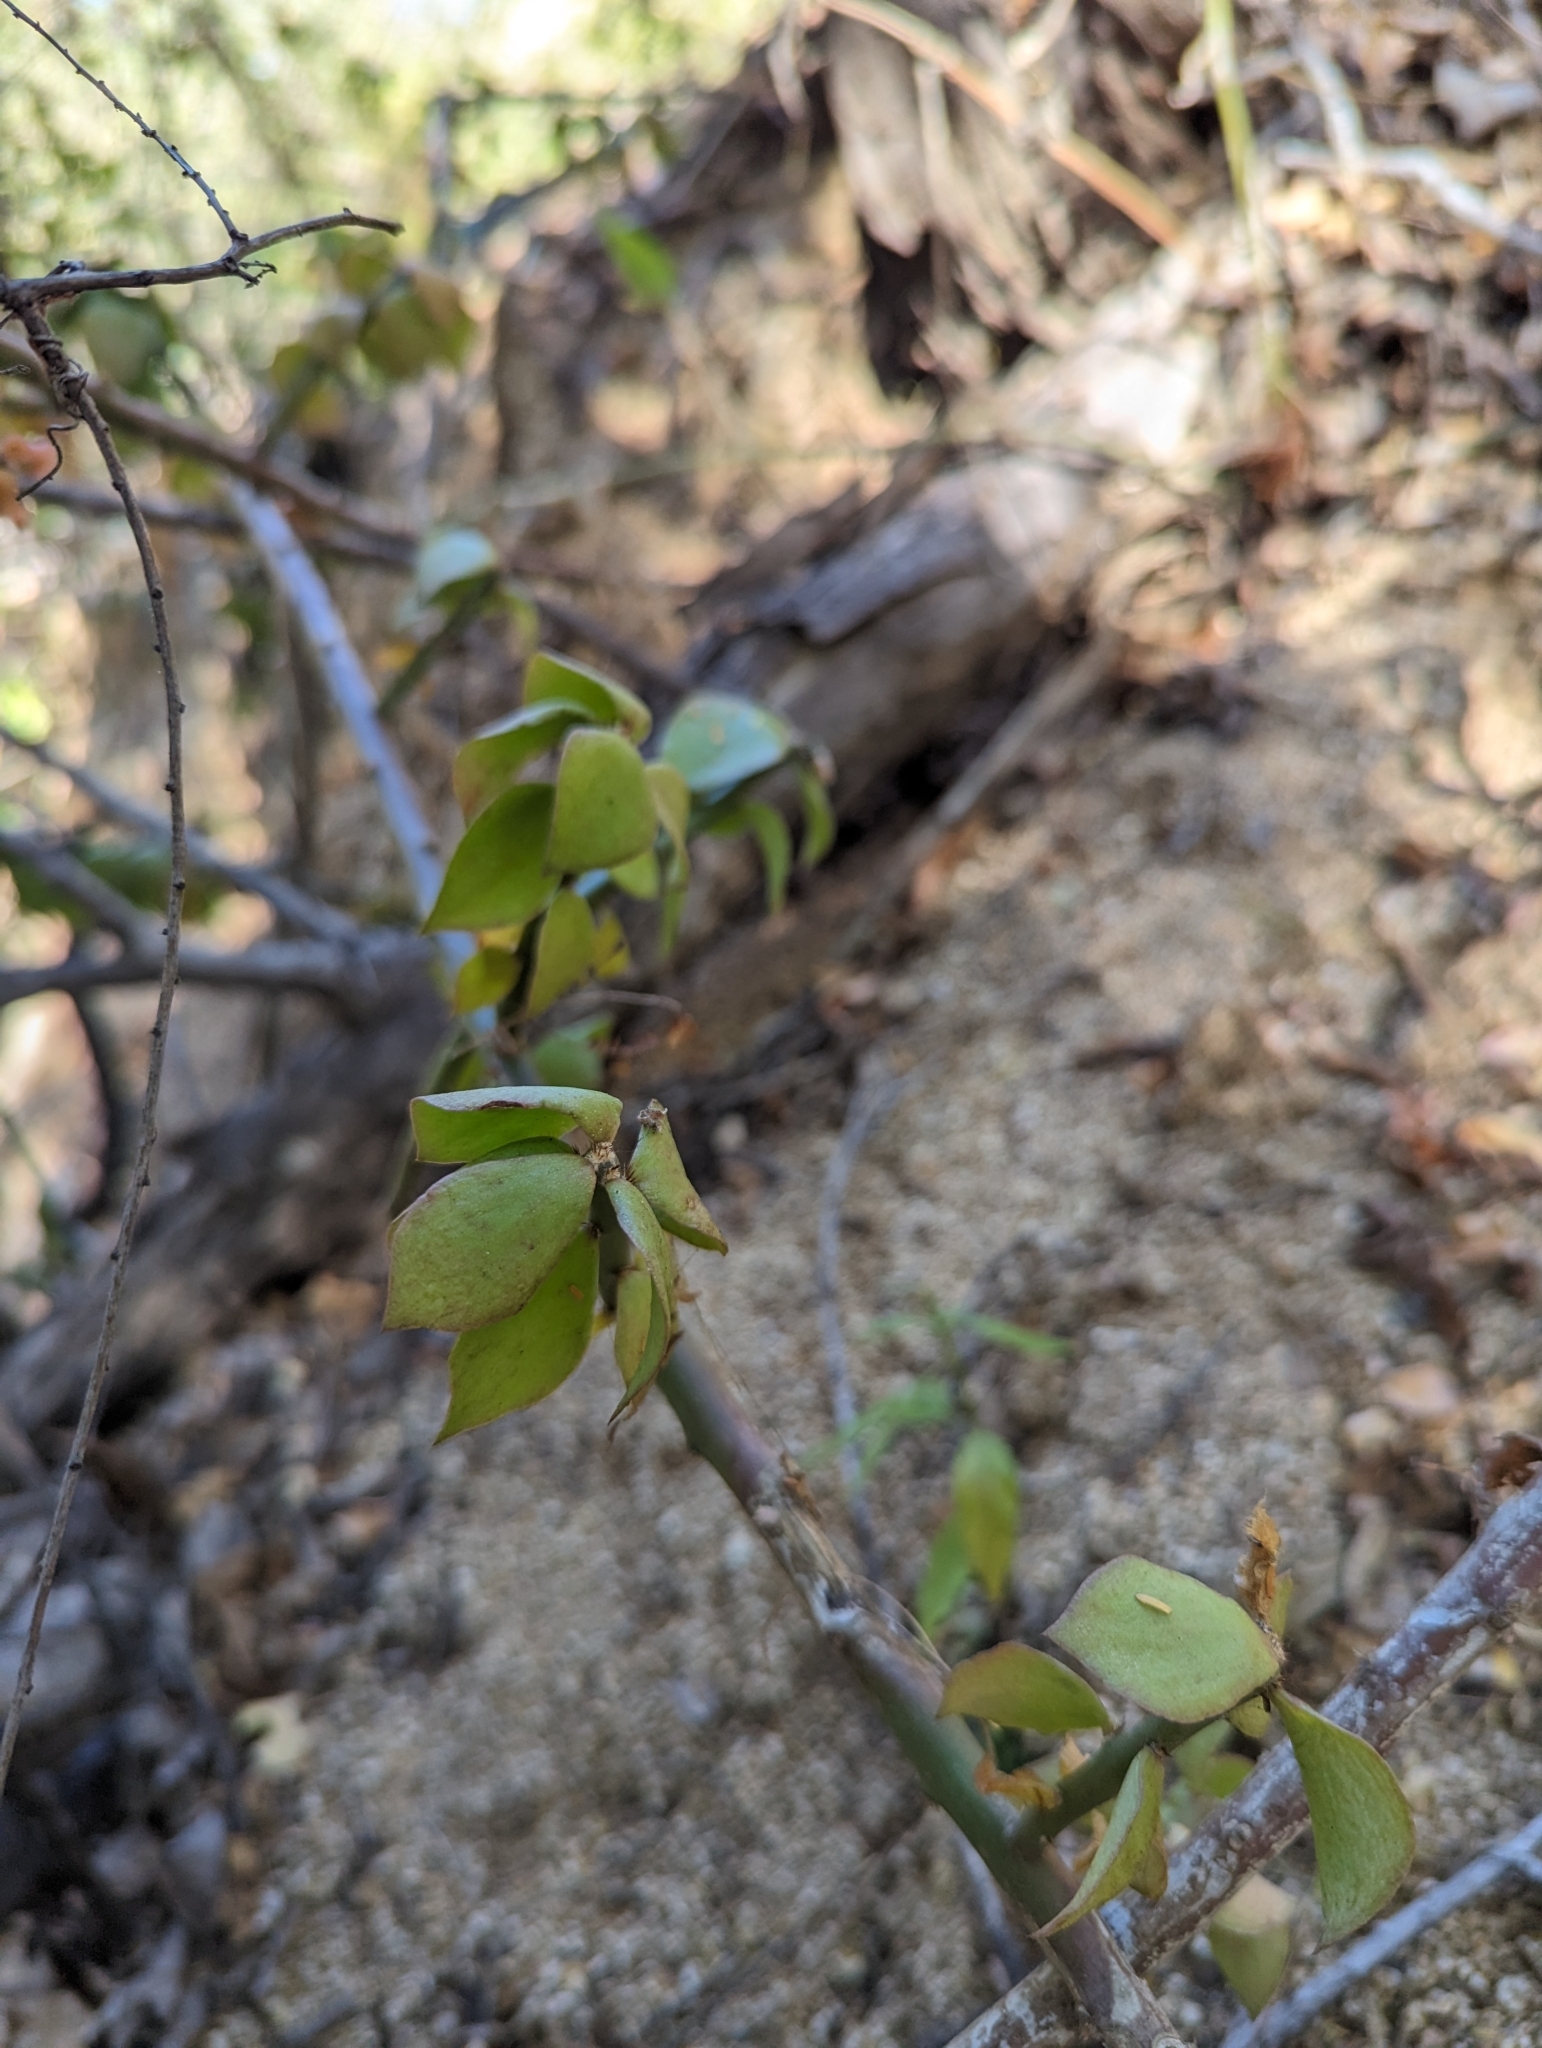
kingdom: Plantae
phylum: Tracheophyta
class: Magnoliopsida
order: Caryophyllales
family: Cactaceae
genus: Pereskiopsis
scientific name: Pereskiopsis porteri
